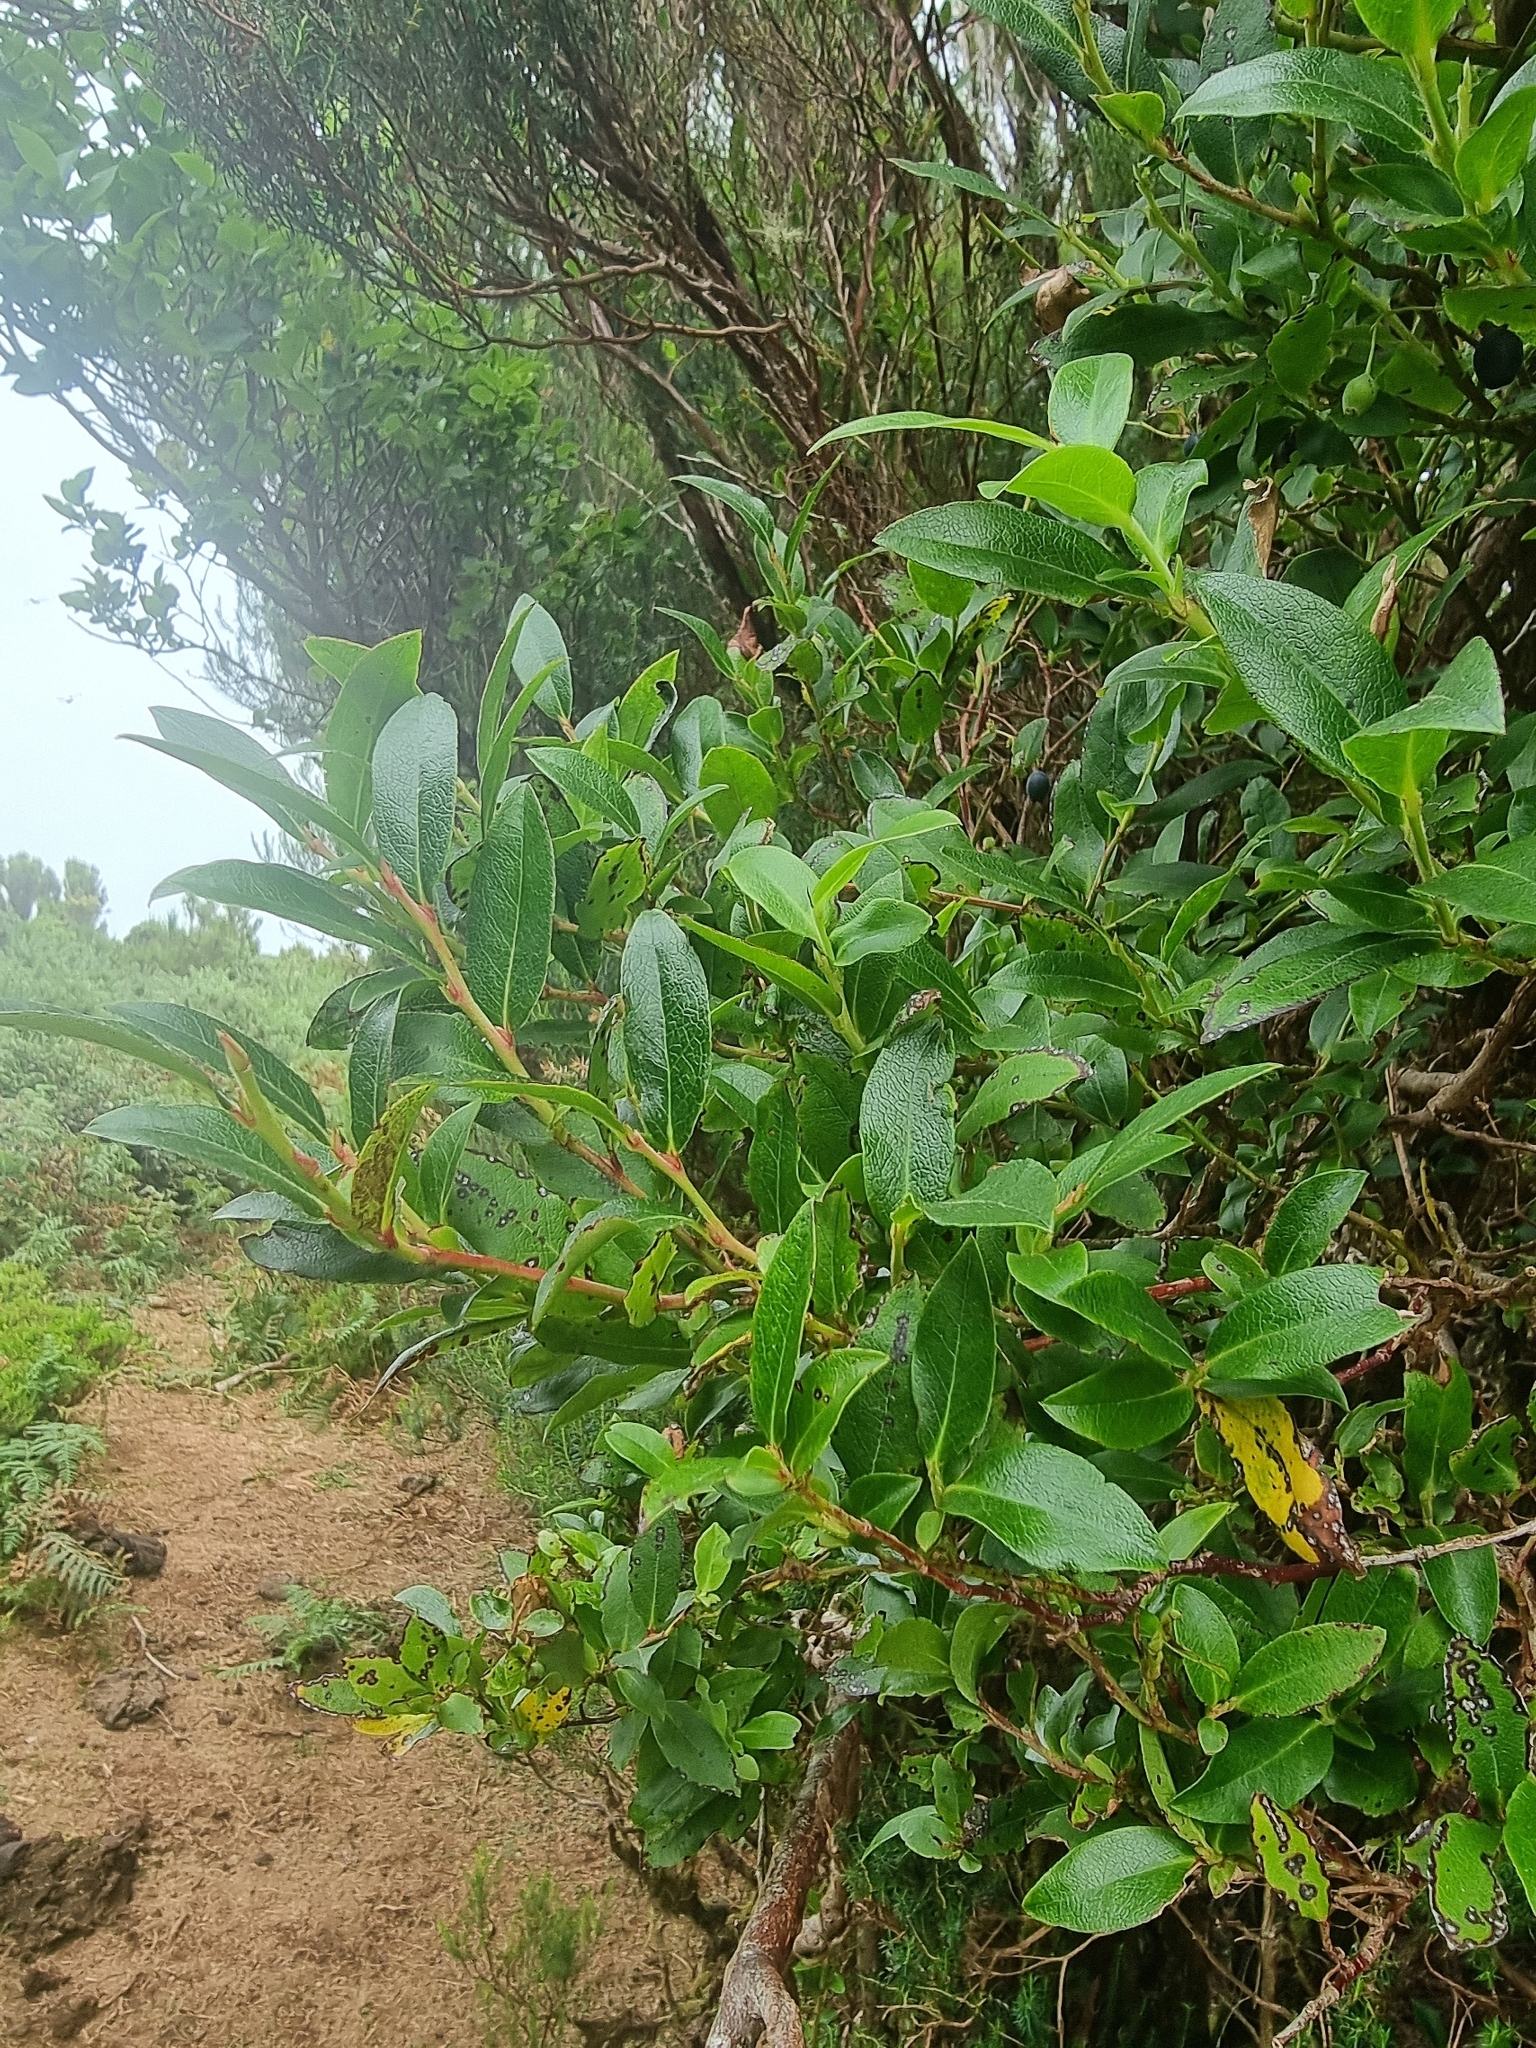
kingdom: Plantae
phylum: Tracheophyta
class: Magnoliopsida
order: Ericales
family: Ericaceae
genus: Vaccinium
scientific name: Vaccinium padifolium
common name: Madeiran blueberry
